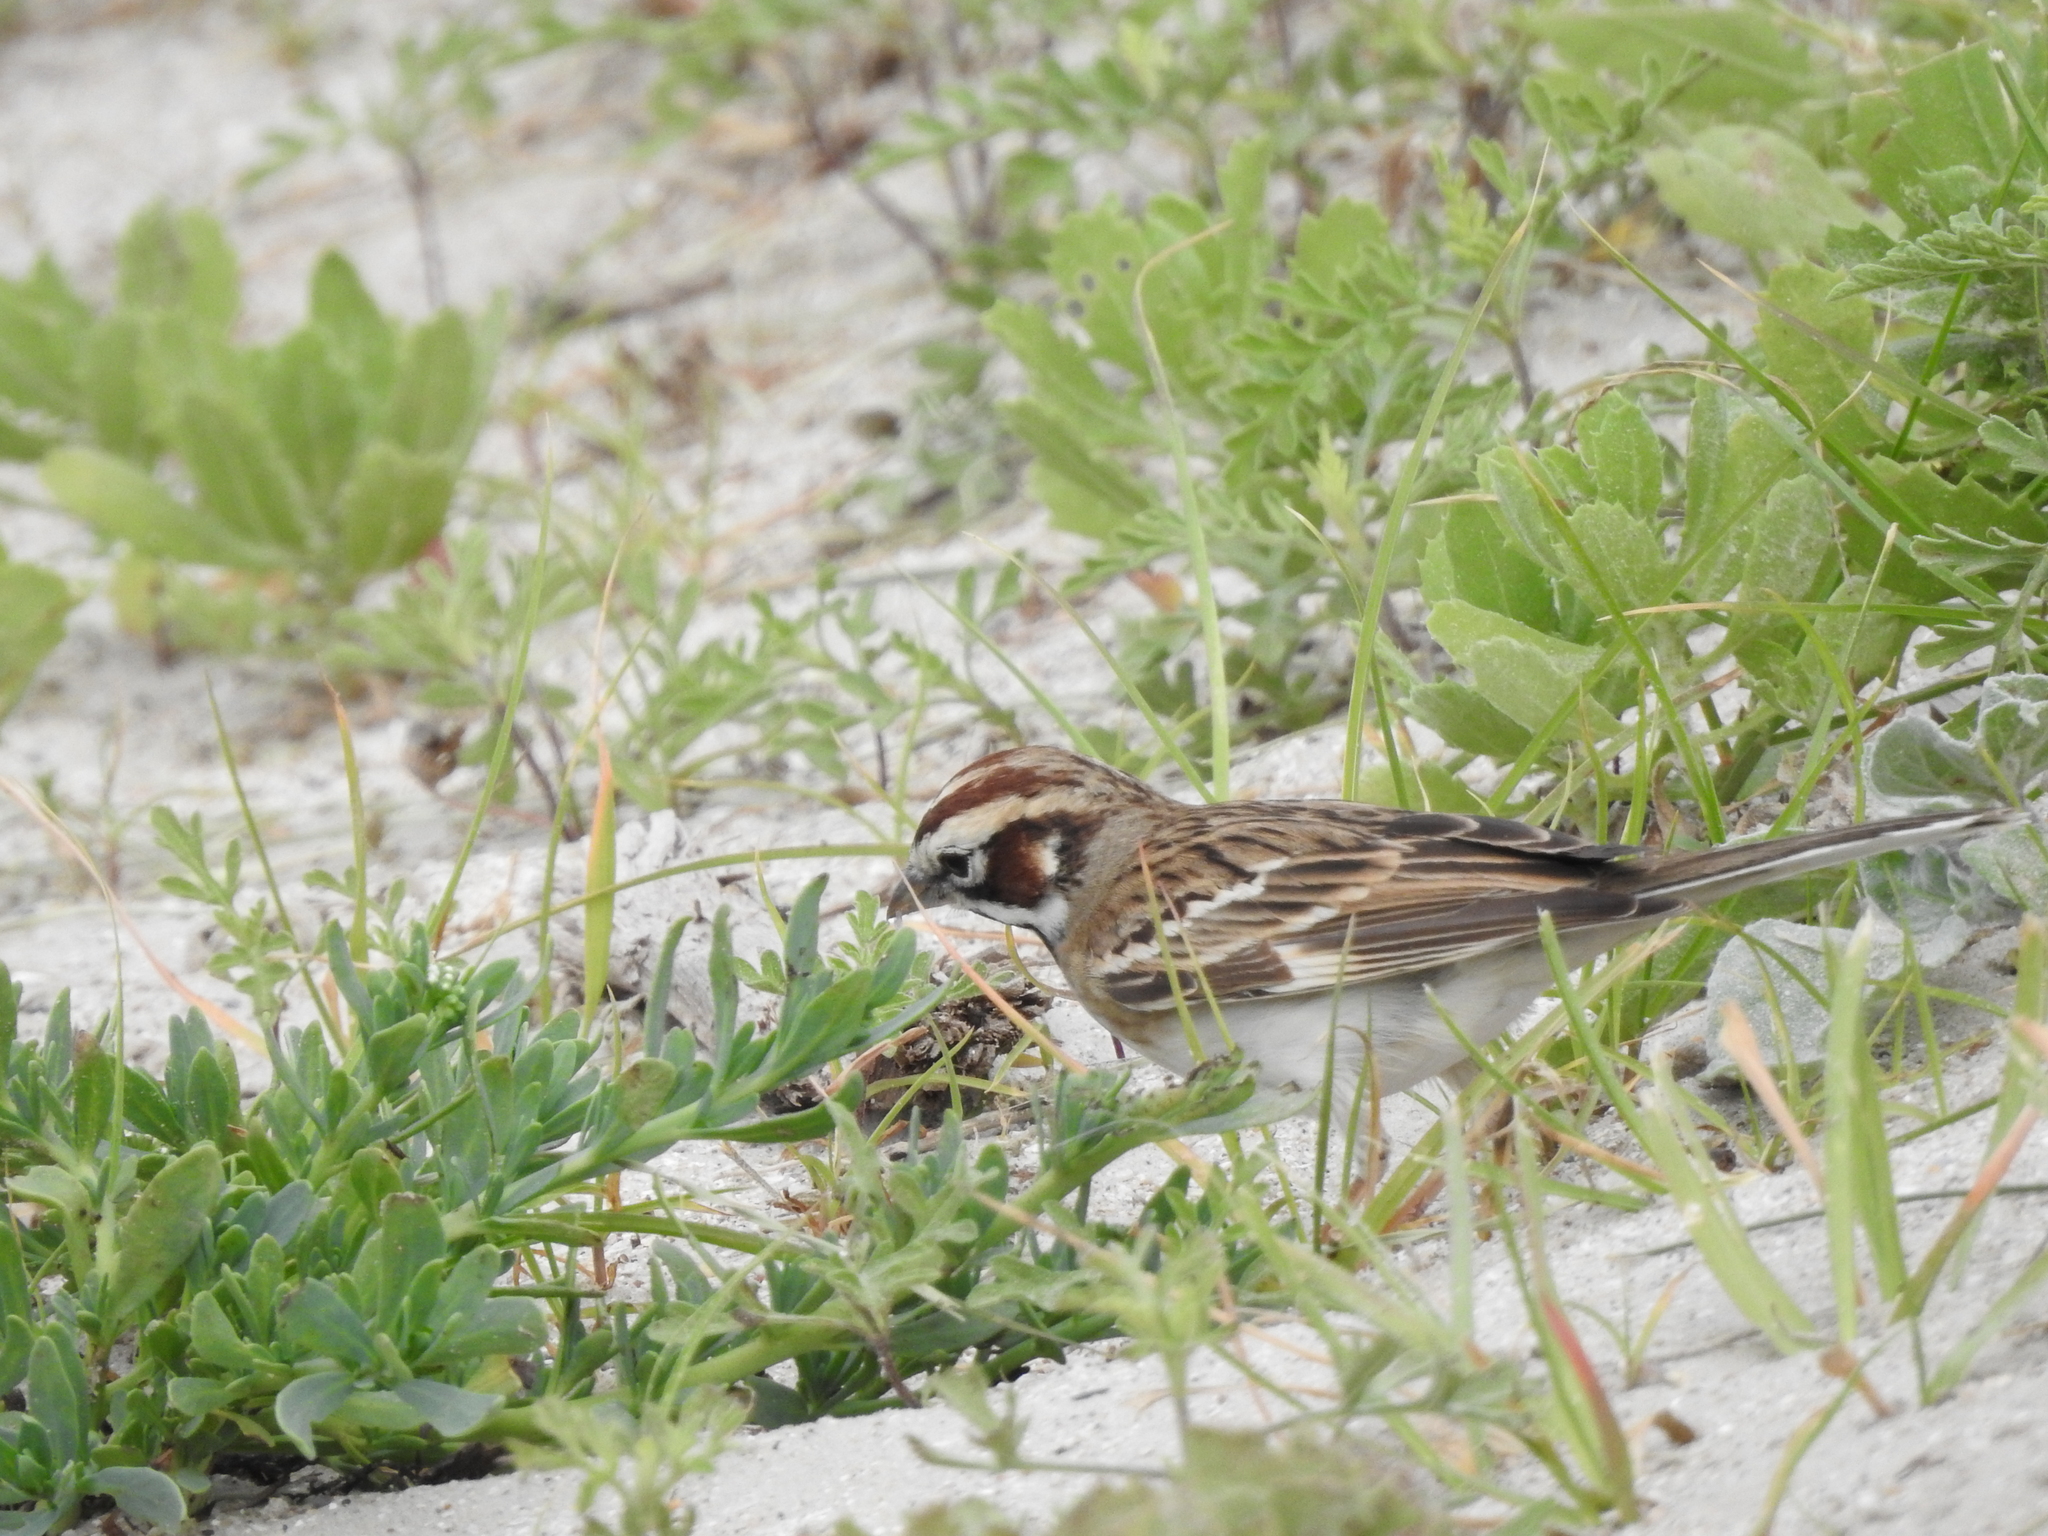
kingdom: Animalia
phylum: Chordata
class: Aves
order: Passeriformes
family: Passerellidae
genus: Chondestes
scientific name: Chondestes grammacus
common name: Lark sparrow
